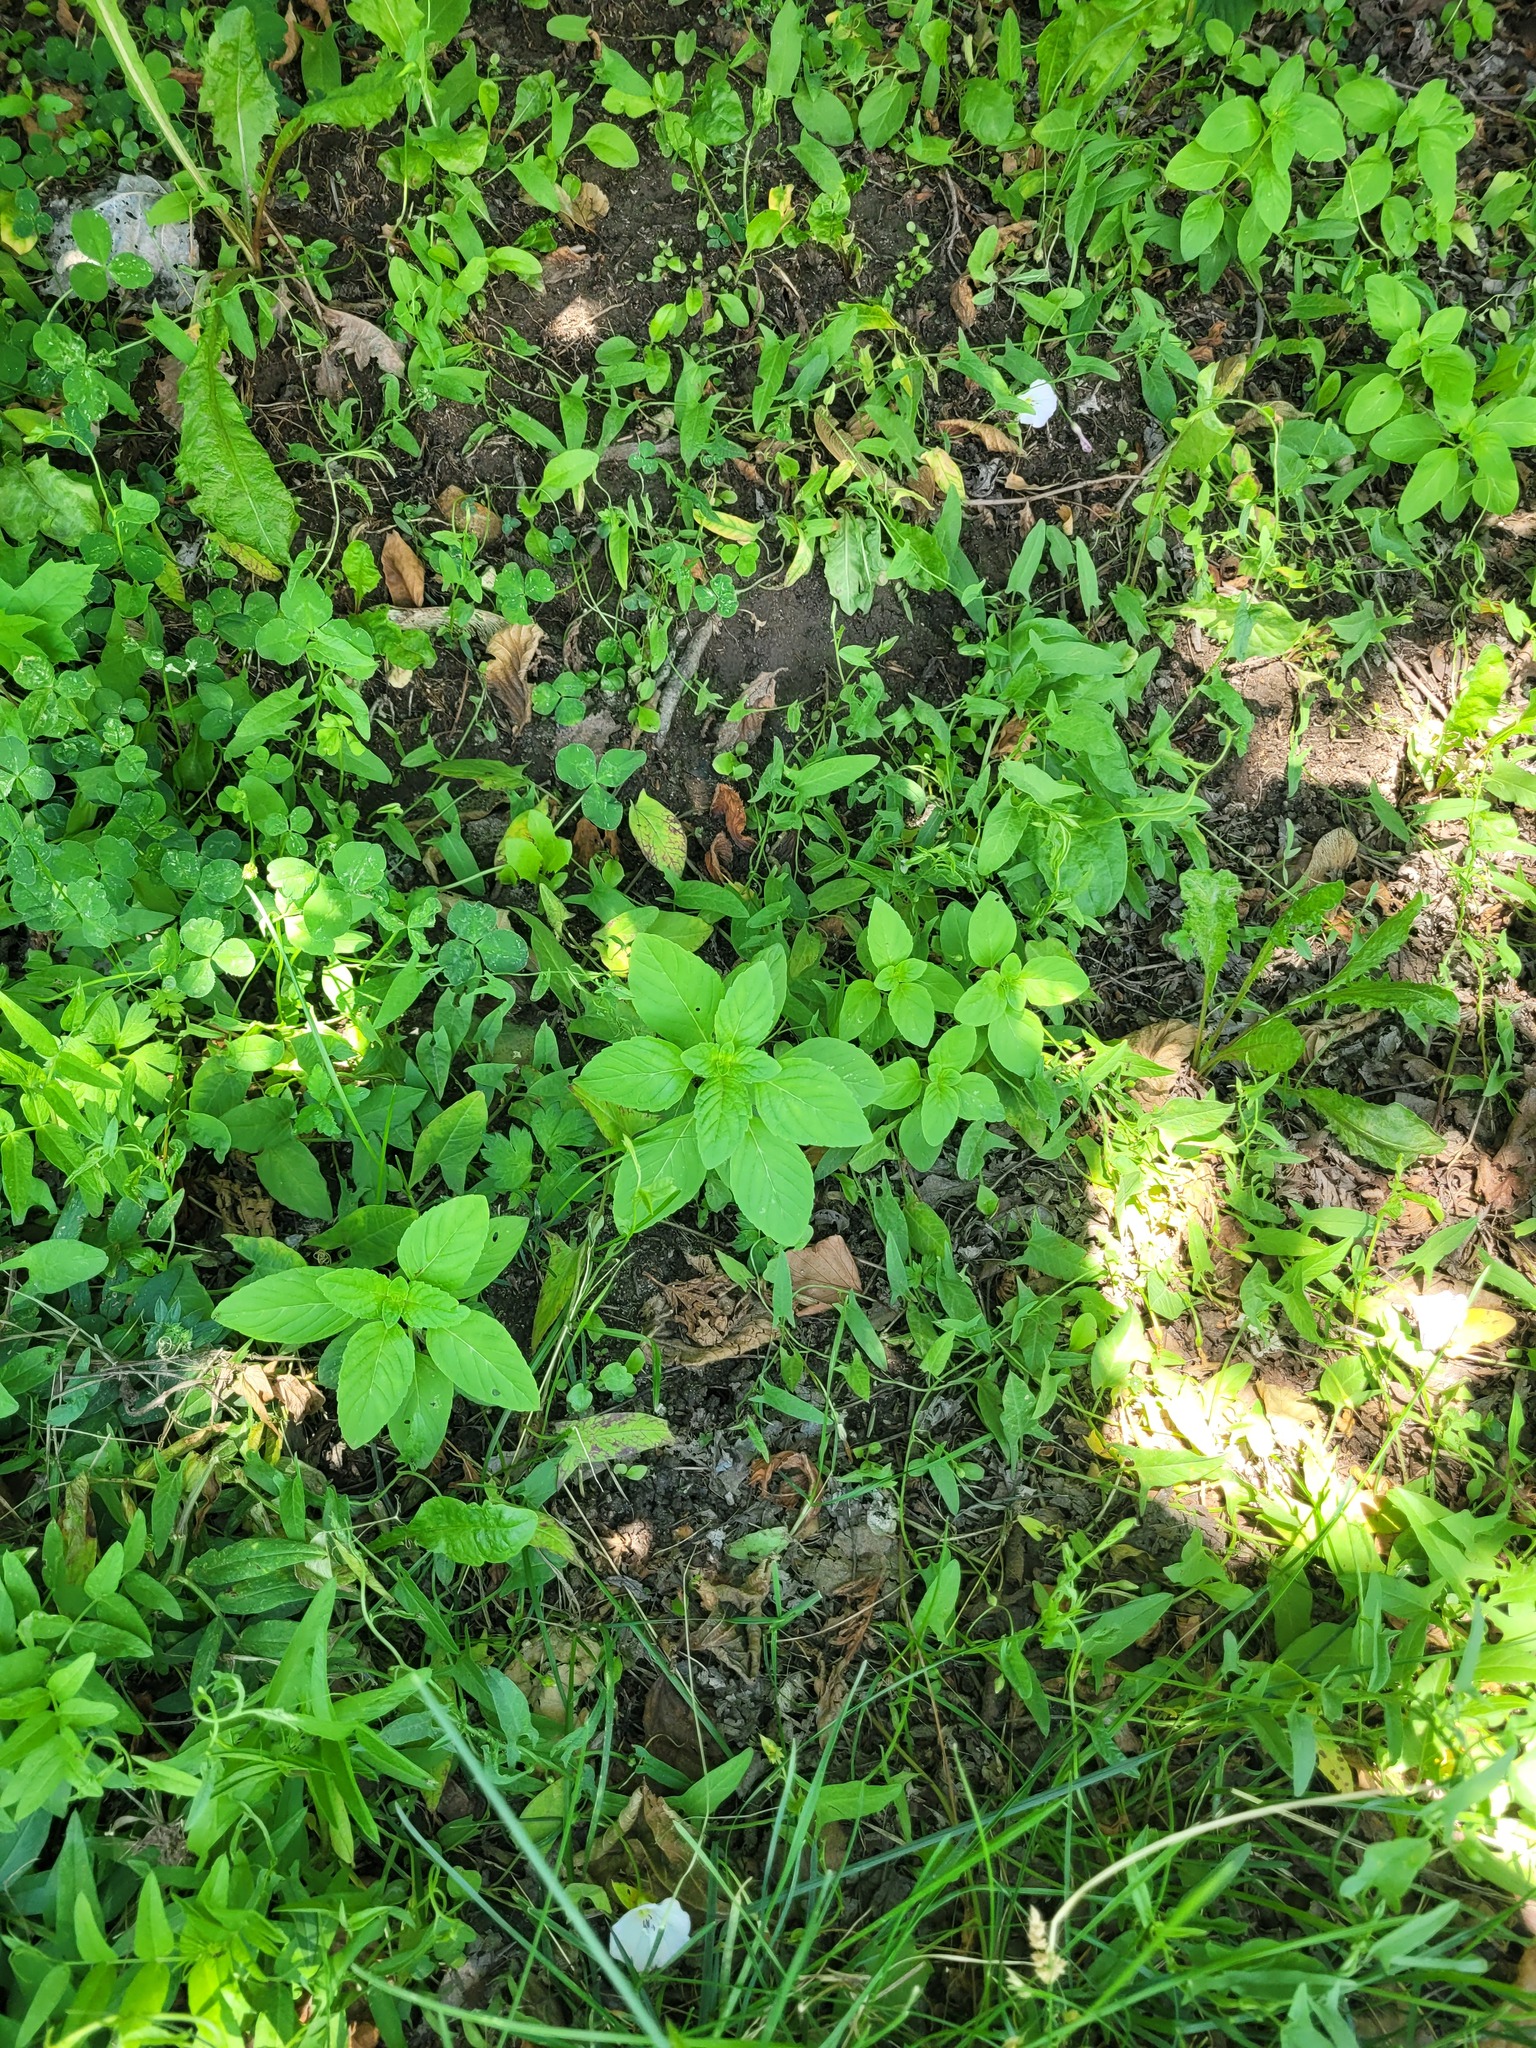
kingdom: Plantae
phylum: Tracheophyta
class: Magnoliopsida
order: Lamiales
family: Lamiaceae
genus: Mentha
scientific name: Mentha arvensis
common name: Corn mint
